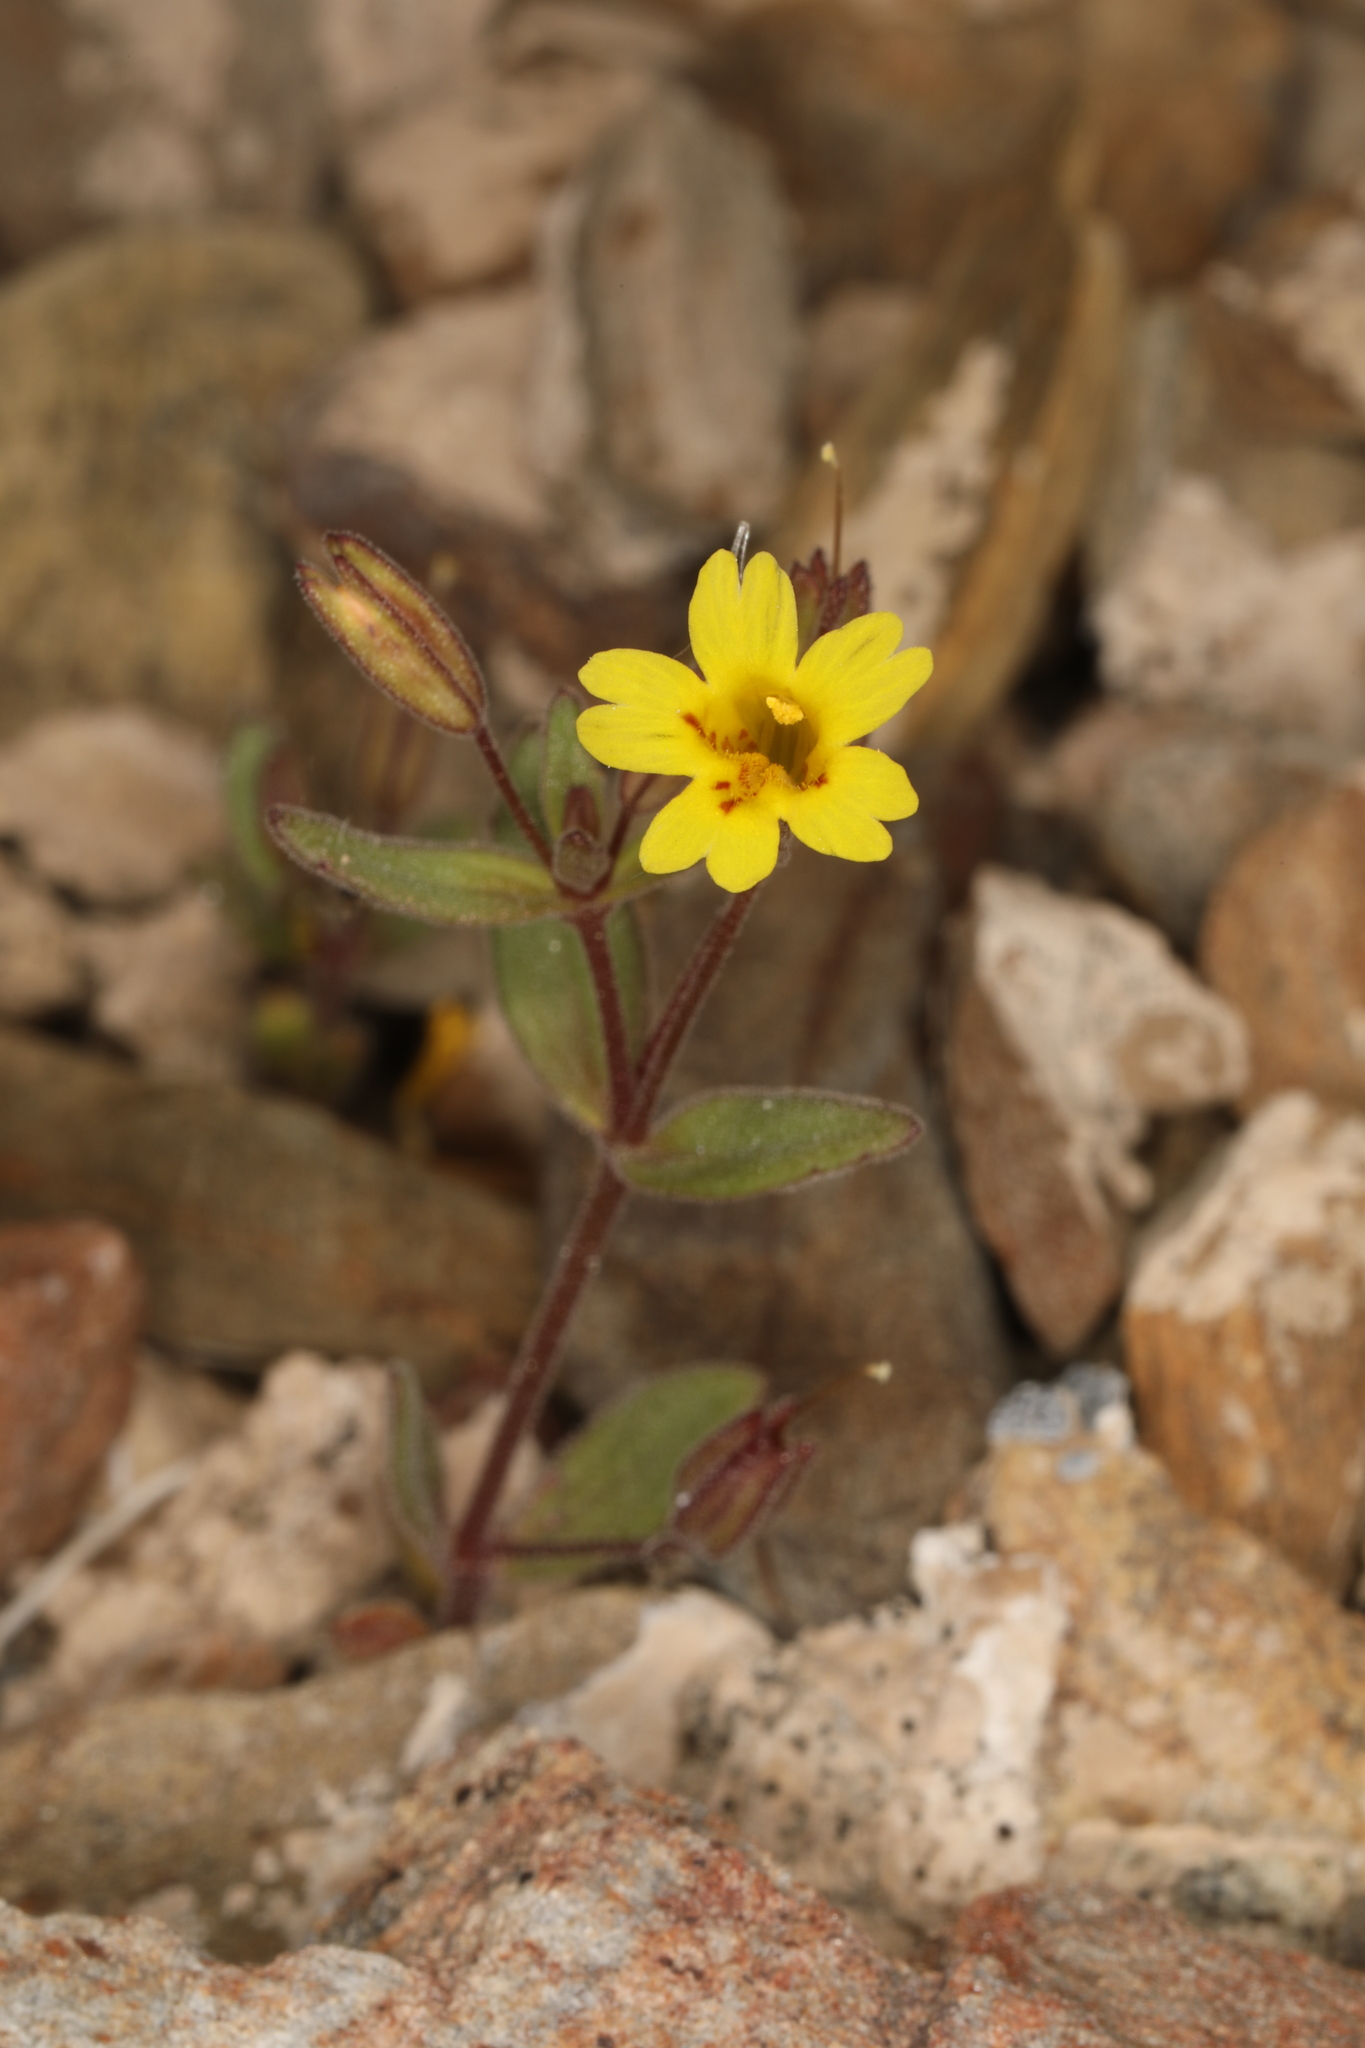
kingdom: Plantae
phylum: Tracheophyta
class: Magnoliopsida
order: Lamiales
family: Phrymaceae
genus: Erythranthe
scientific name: Erythranthe calcicola
